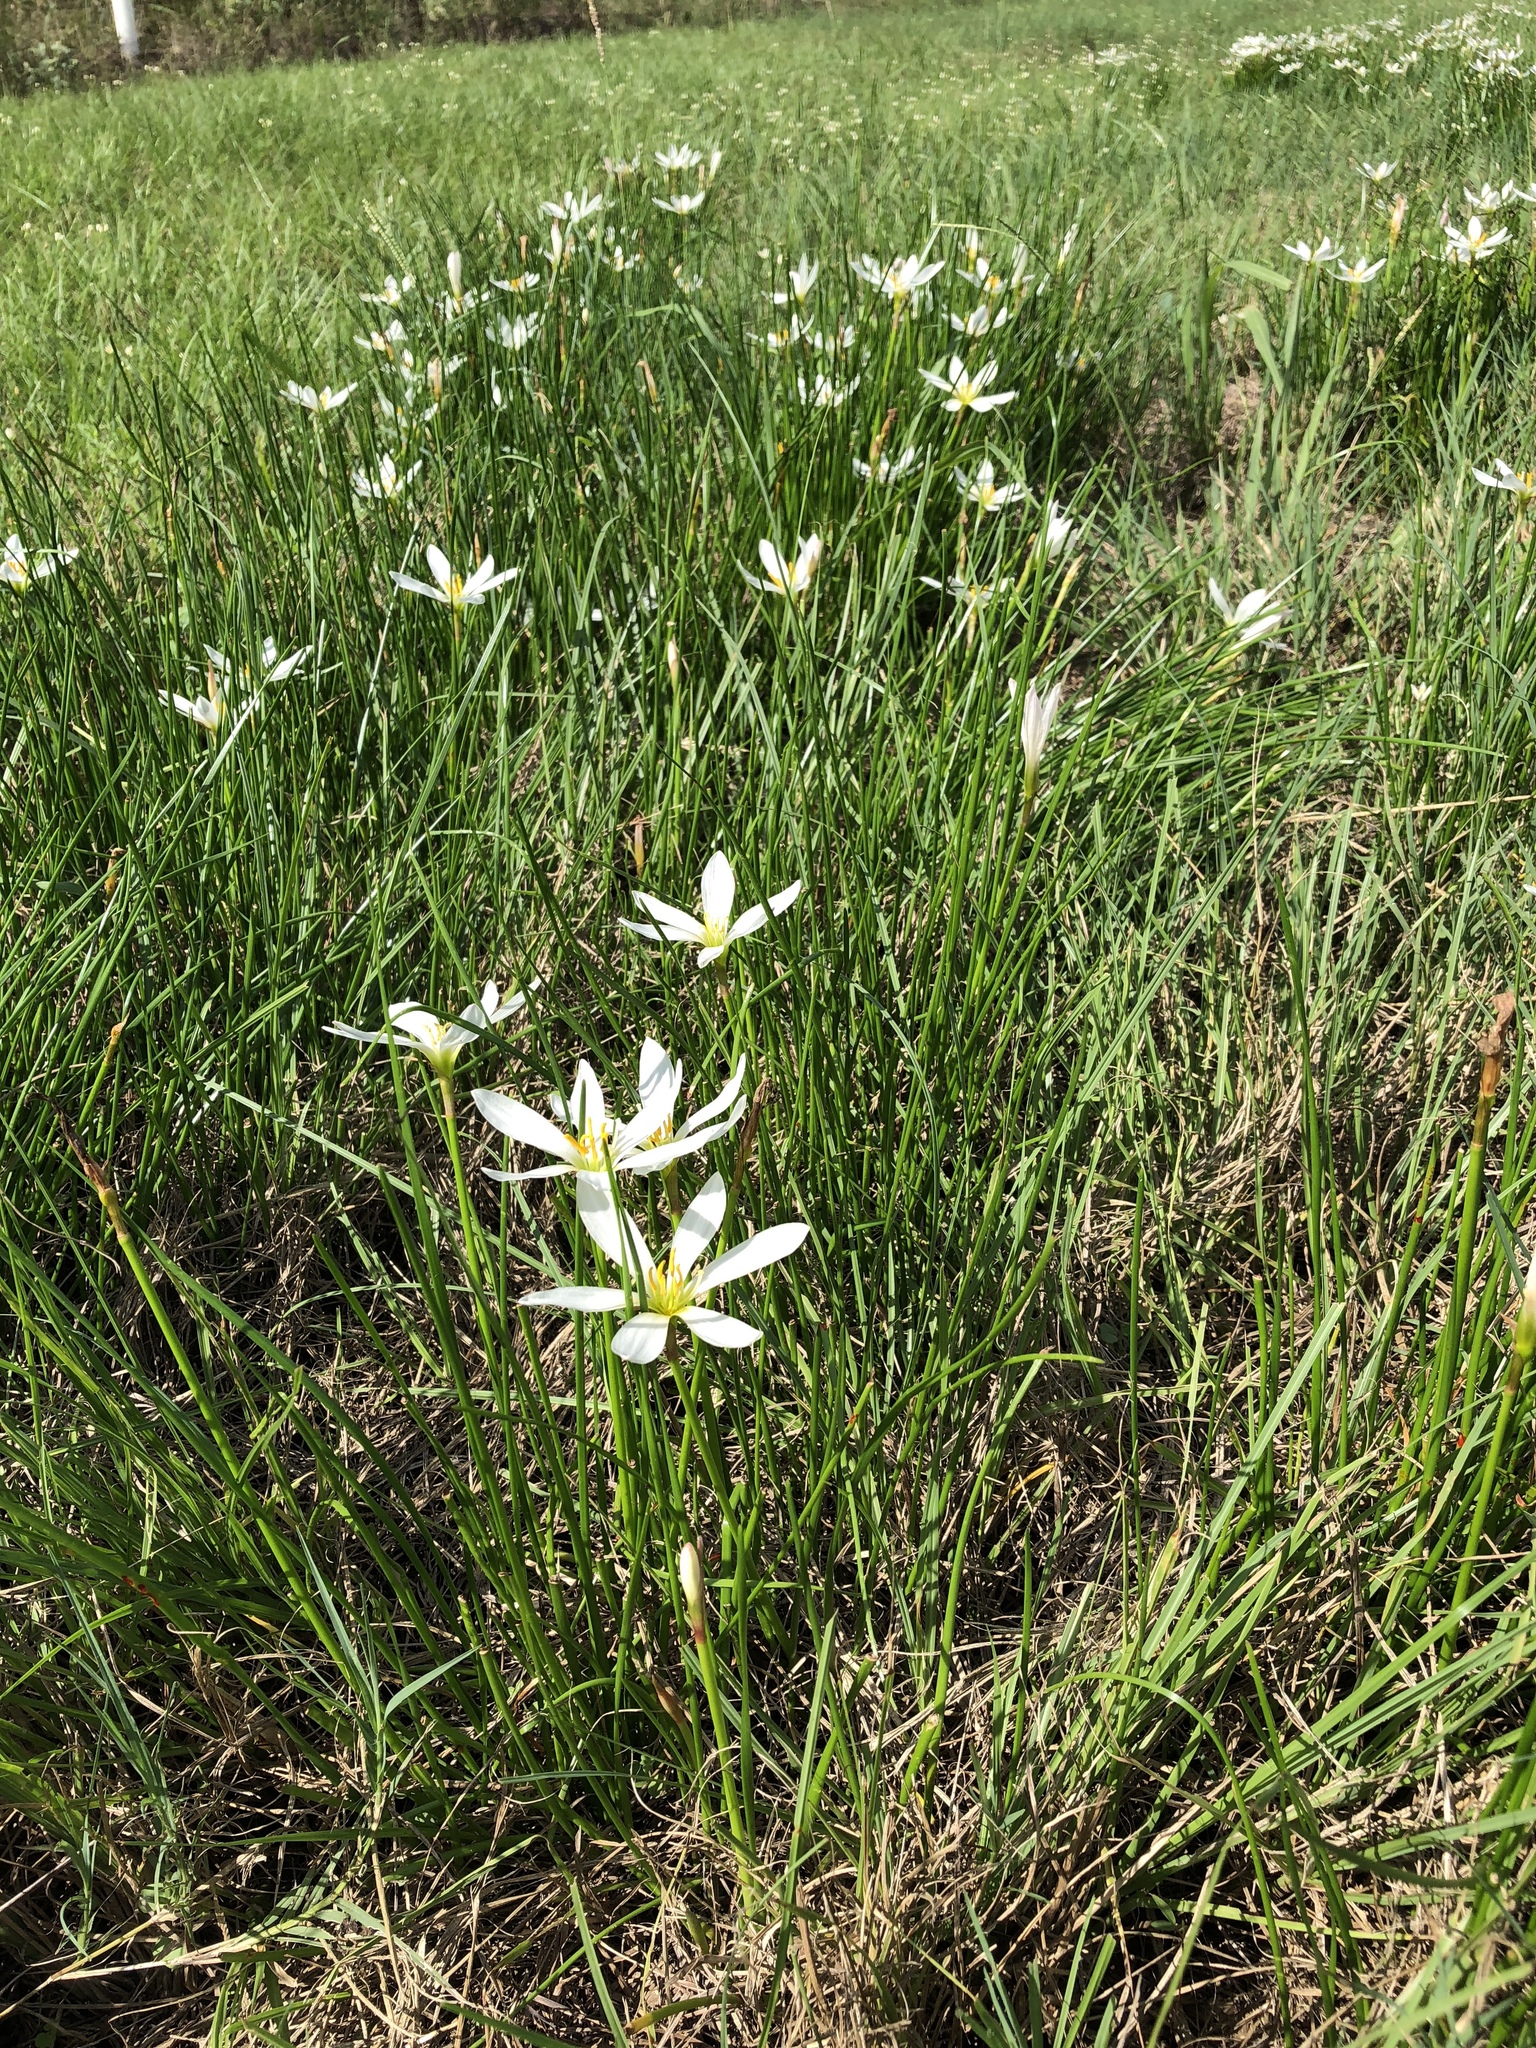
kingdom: Plantae
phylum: Tracheophyta
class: Liliopsida
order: Asparagales
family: Amaryllidaceae
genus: Zephyranthes
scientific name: Zephyranthes candida
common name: Autumn zephyrlily
